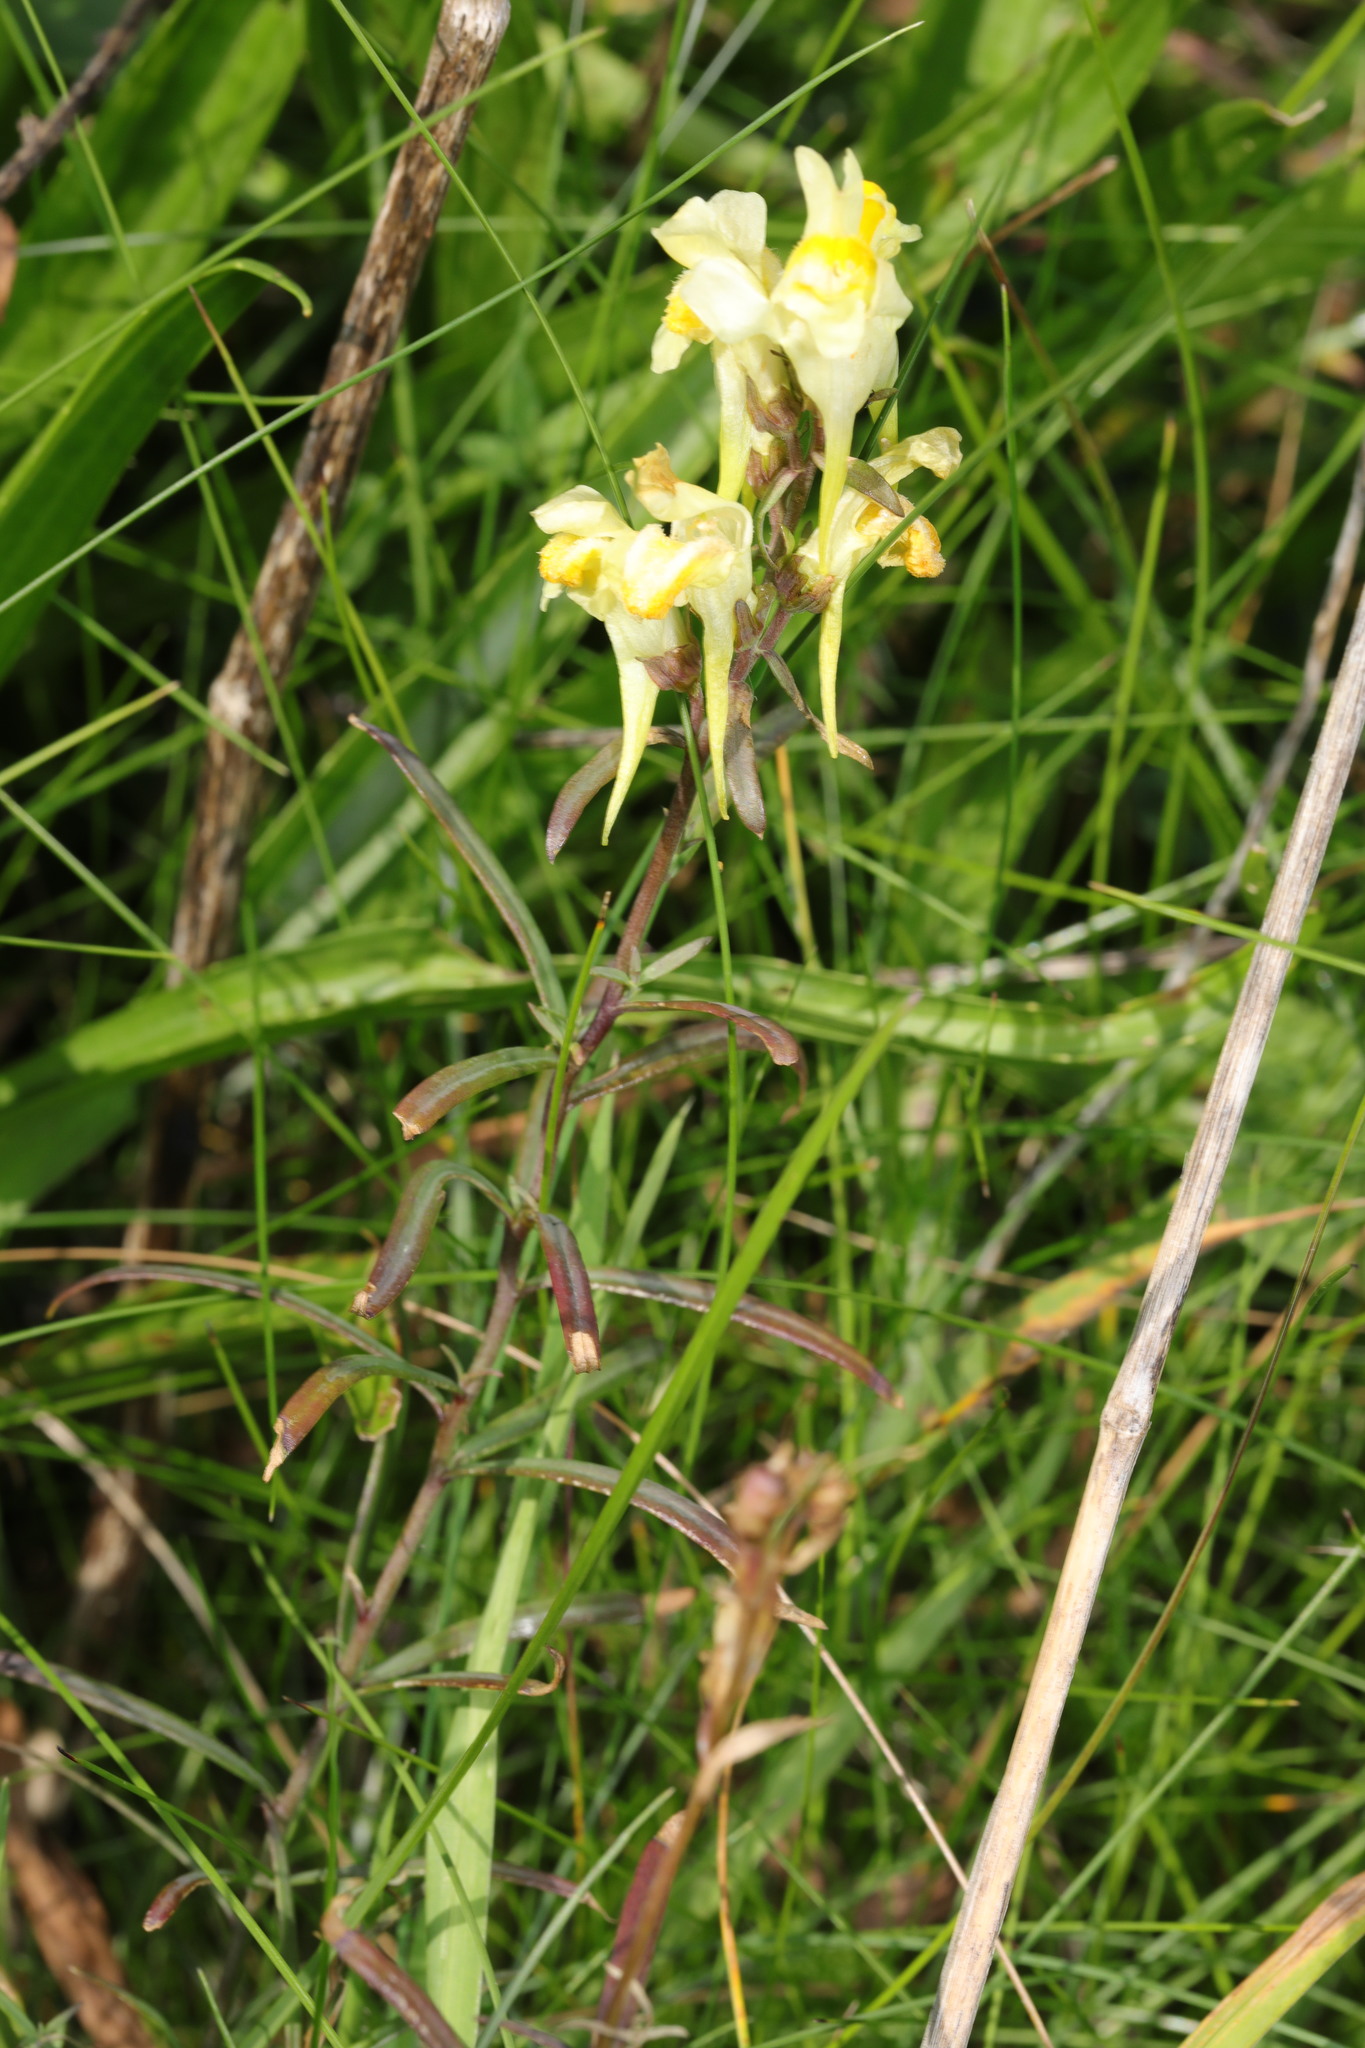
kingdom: Plantae
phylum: Tracheophyta
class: Magnoliopsida
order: Lamiales
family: Plantaginaceae
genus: Linaria
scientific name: Linaria vulgaris
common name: Butter and eggs
